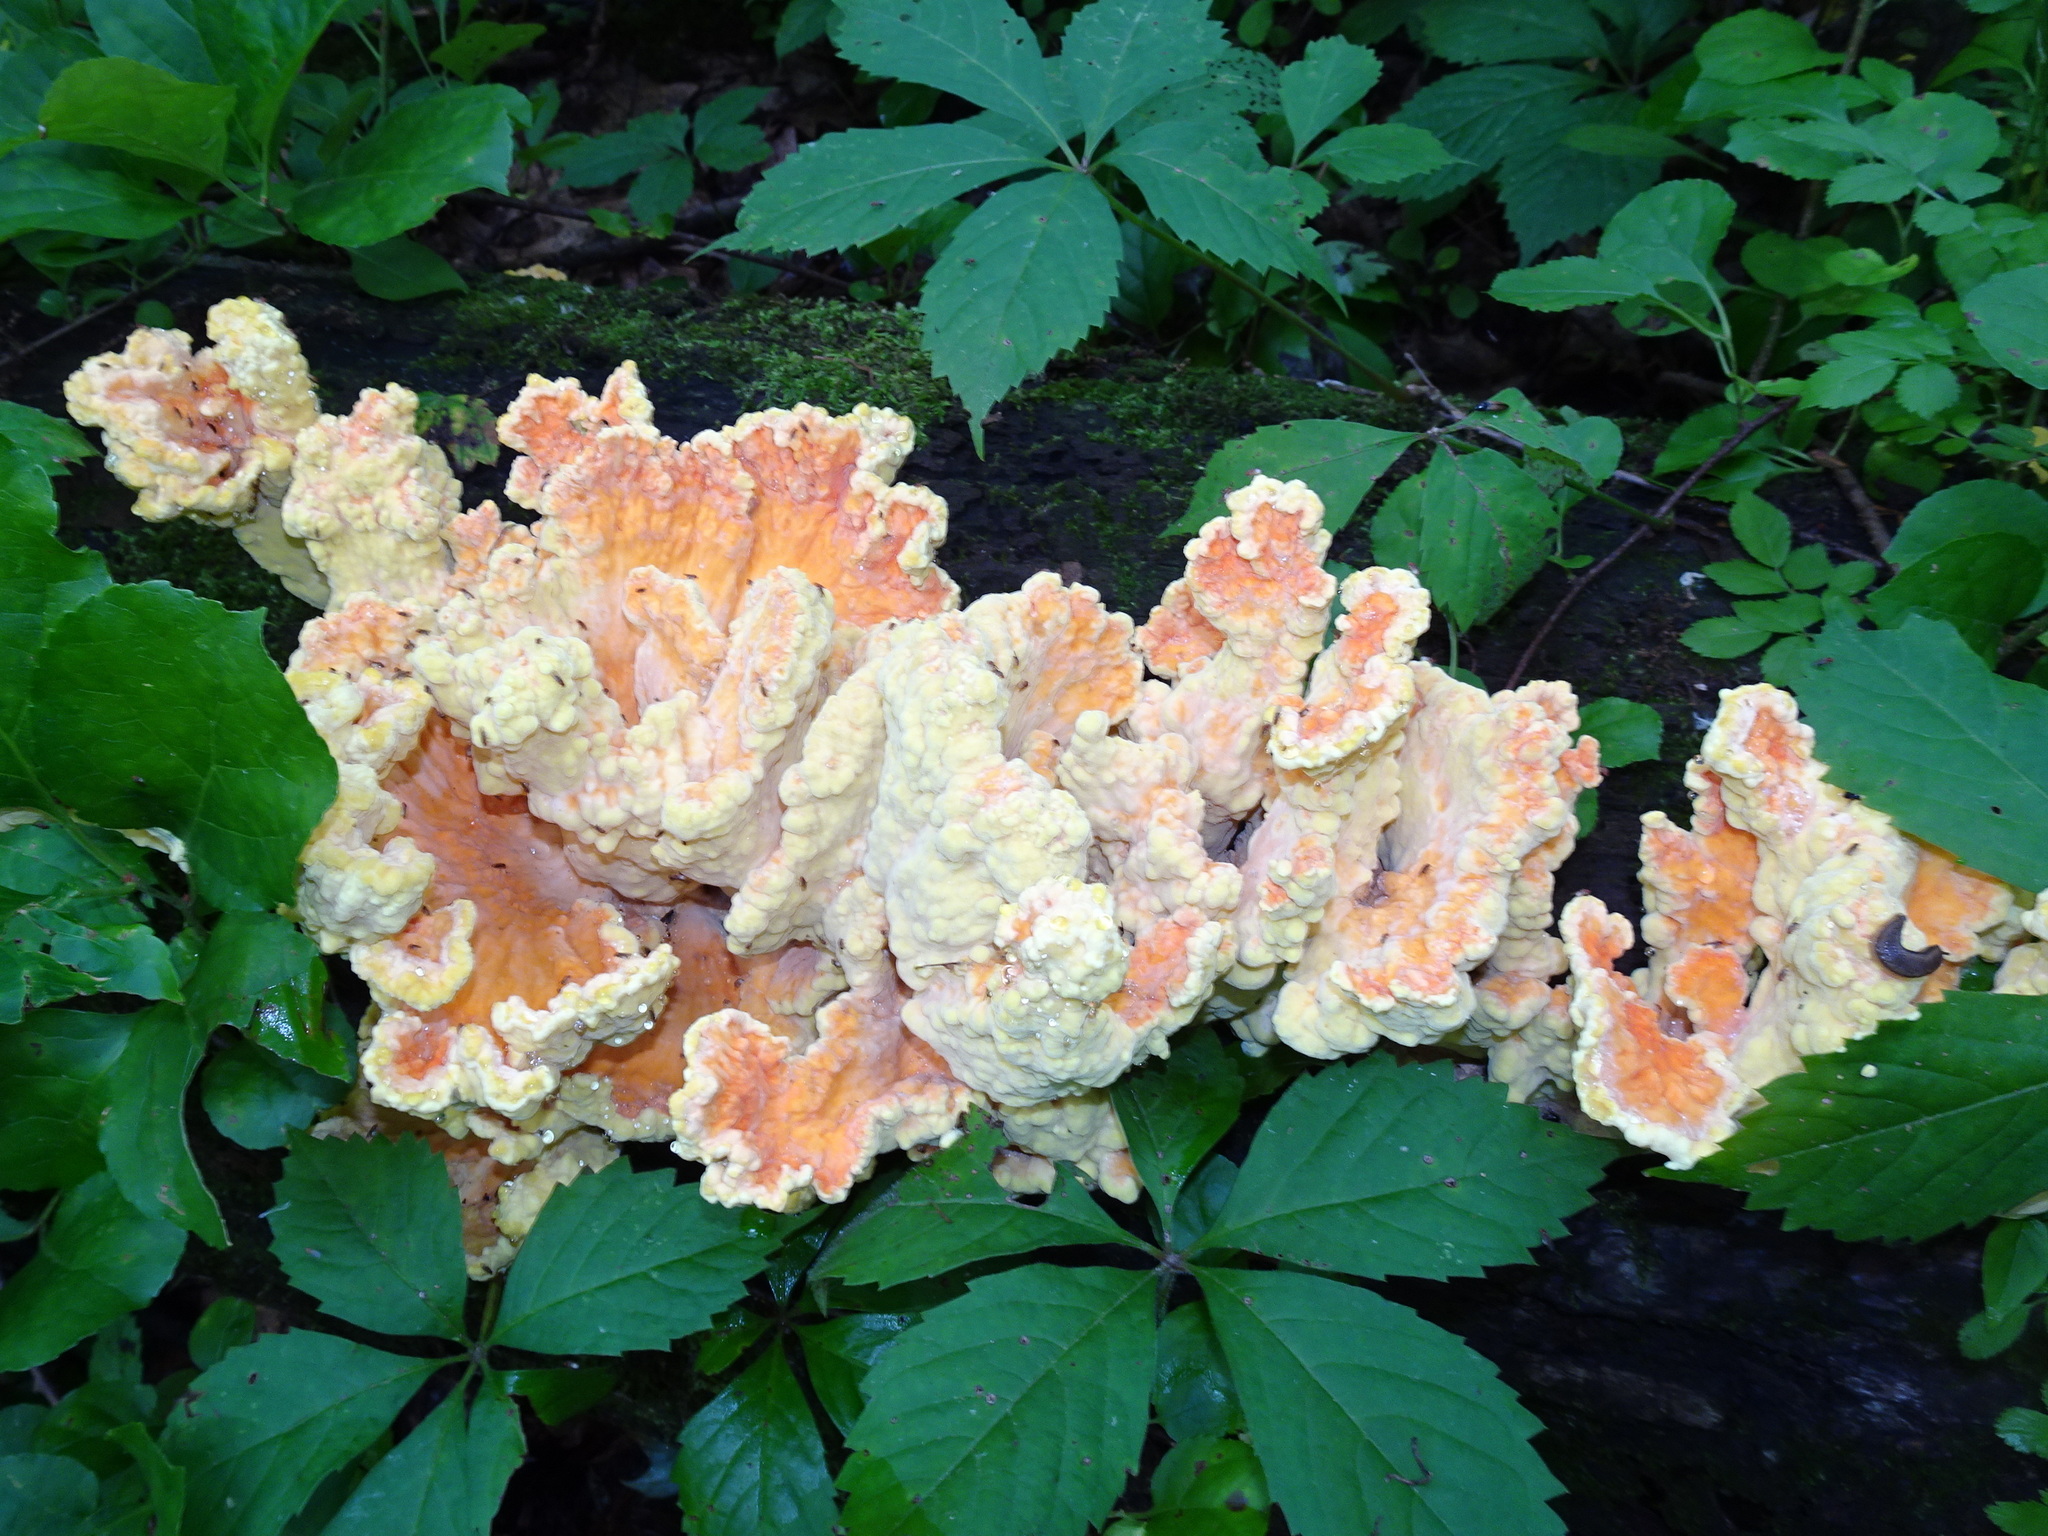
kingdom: Fungi
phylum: Basidiomycota
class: Agaricomycetes
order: Polyporales
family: Laetiporaceae
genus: Laetiporus
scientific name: Laetiporus sulphureus
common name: Chicken of the woods
